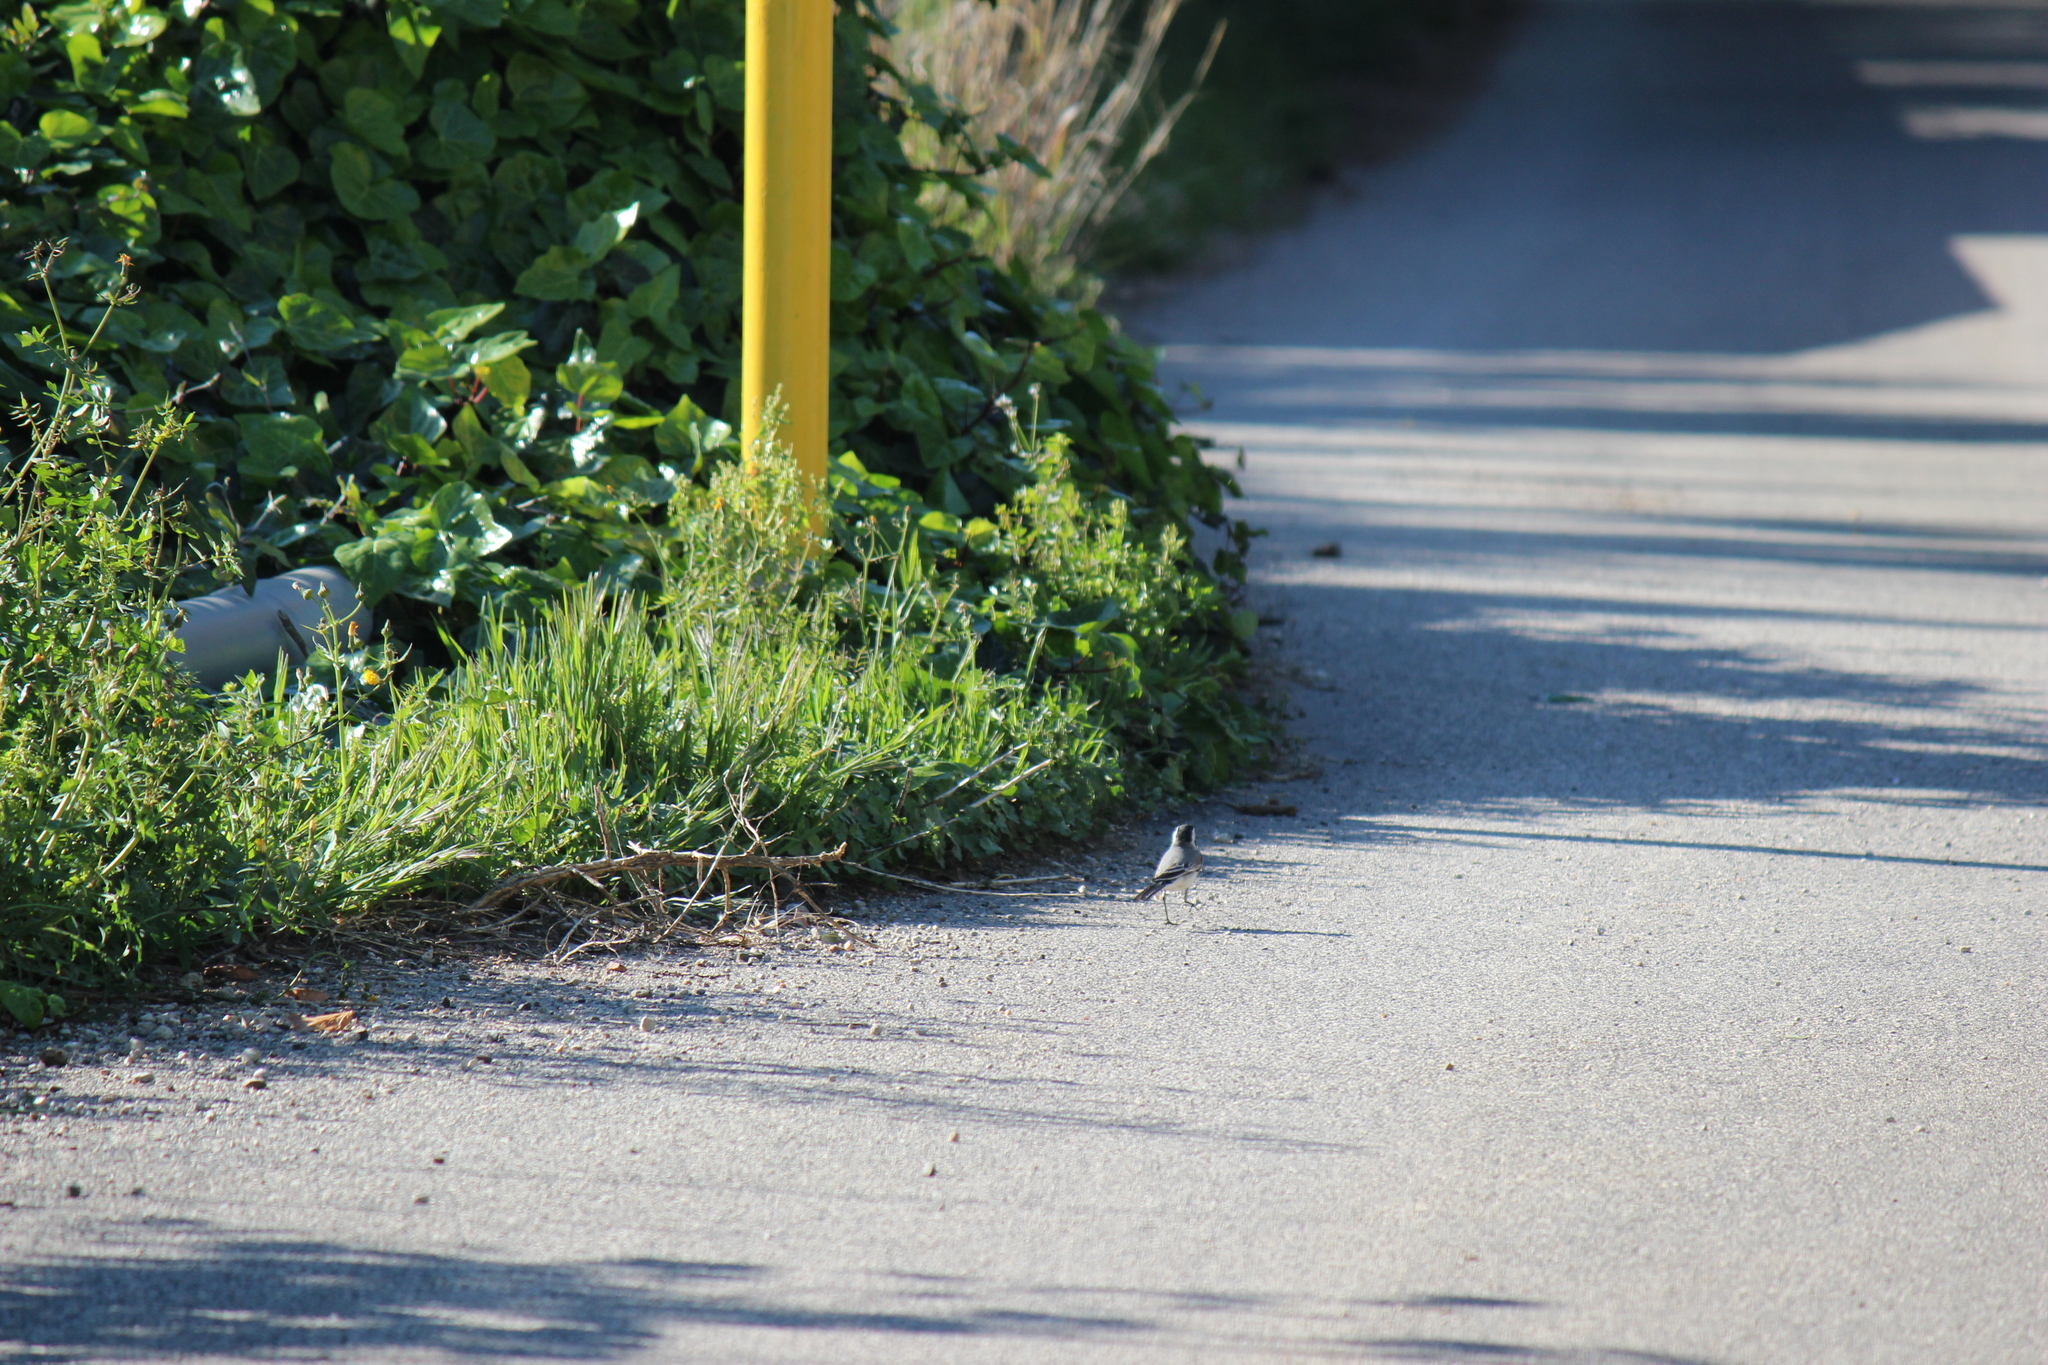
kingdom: Animalia
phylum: Chordata
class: Aves
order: Passeriformes
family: Motacillidae
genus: Motacilla
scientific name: Motacilla alba
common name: White wagtail
